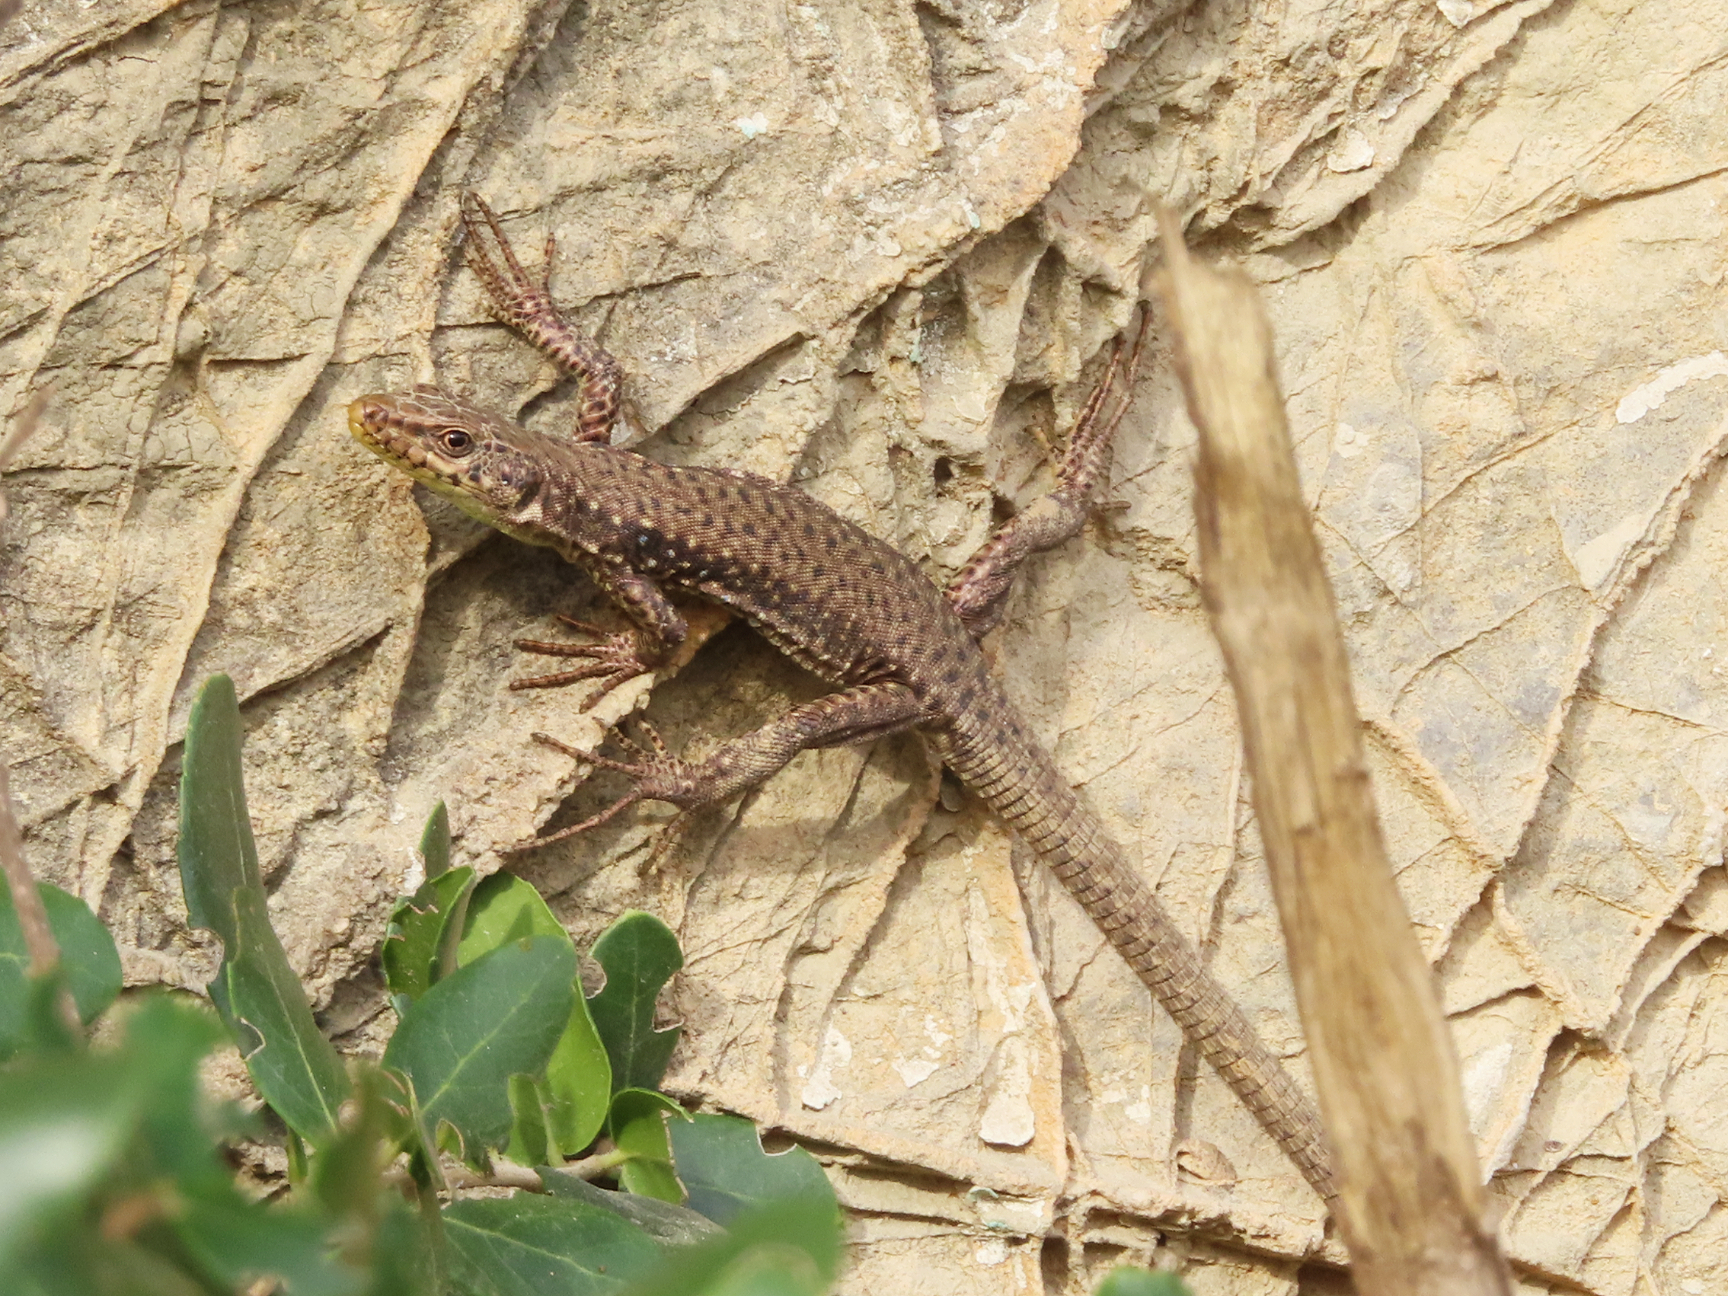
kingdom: Animalia
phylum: Chordata
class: Squamata
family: Lacertidae
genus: Darevskia
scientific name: Darevskia bithynica
